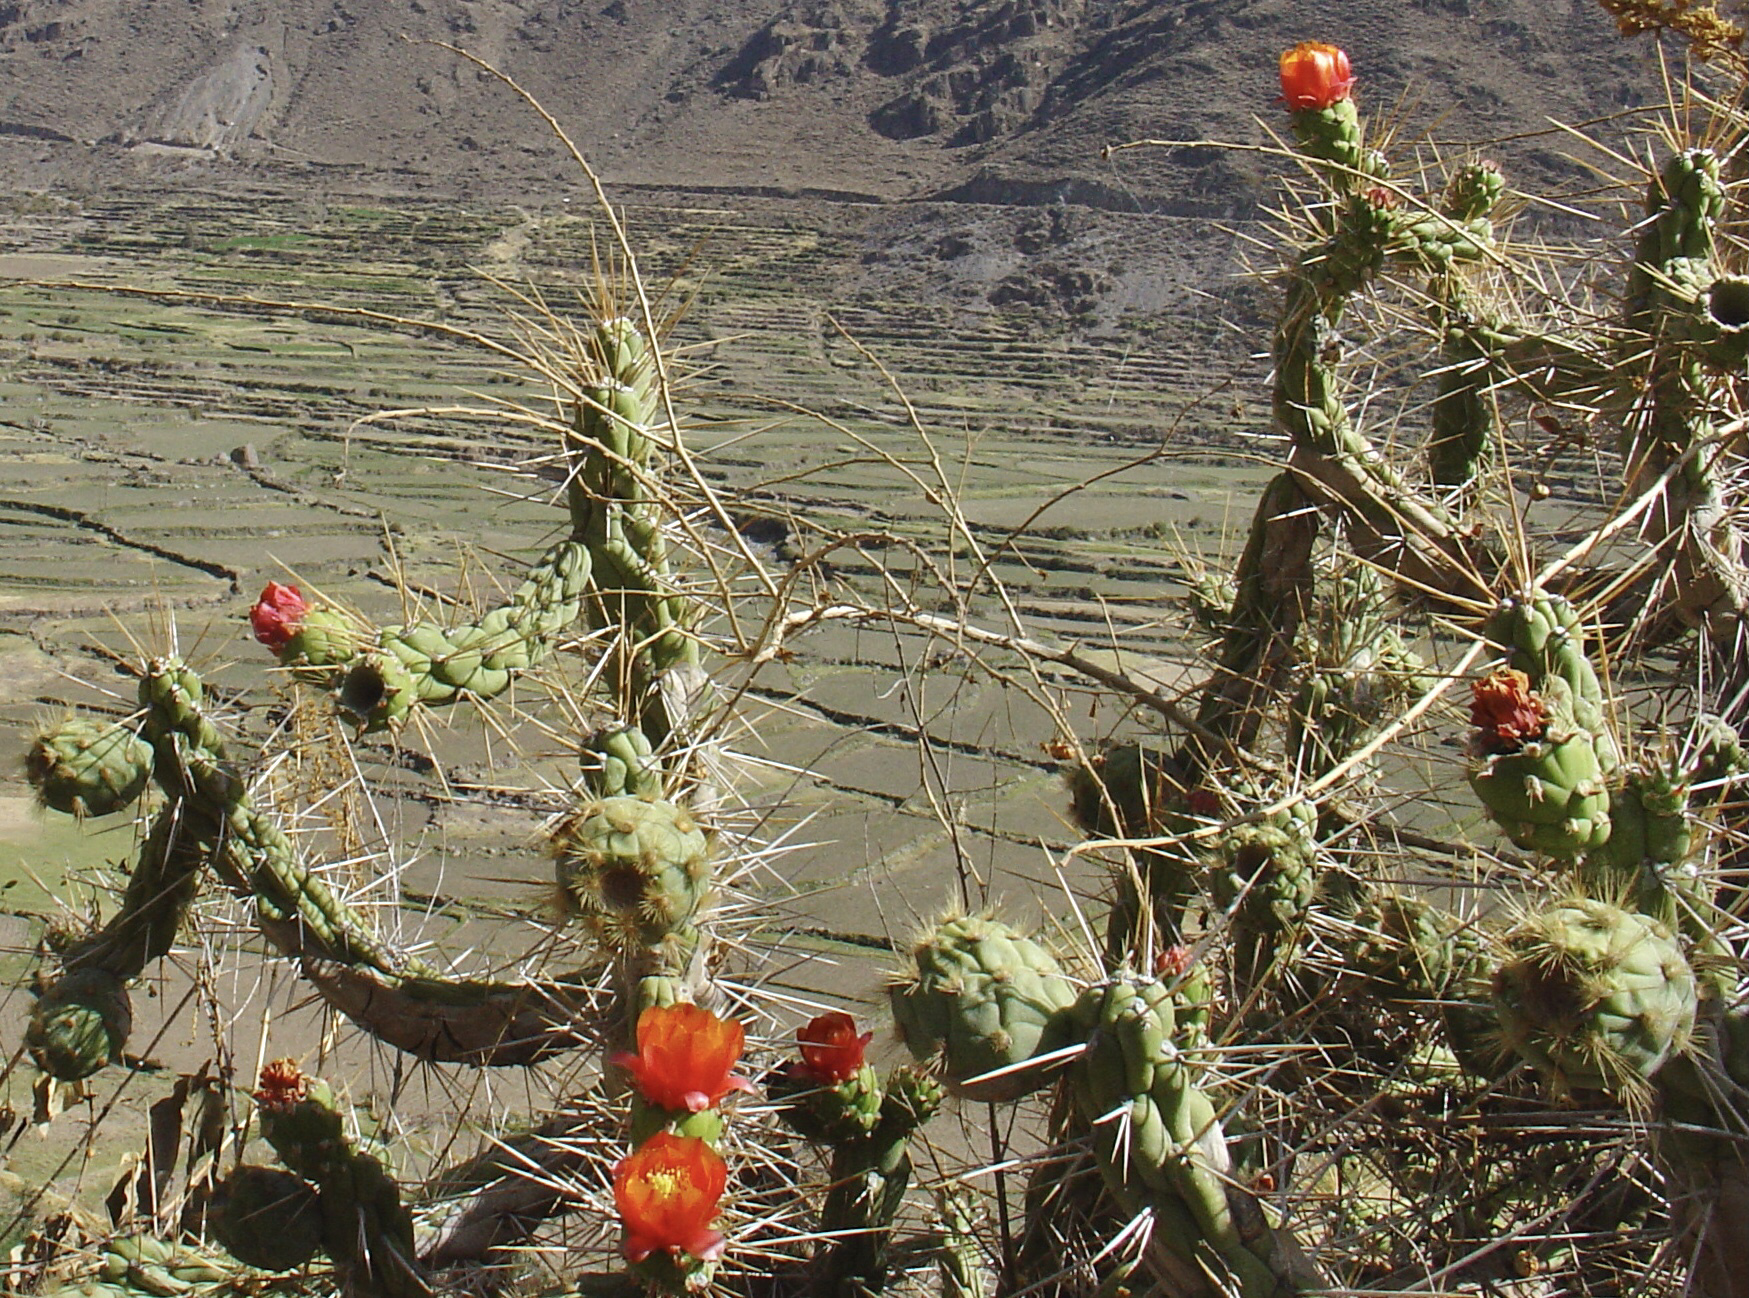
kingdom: Plantae
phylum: Tracheophyta
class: Magnoliopsida
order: Caryophyllales
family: Cactaceae
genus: Austrocylindropuntia
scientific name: Austrocylindropuntia subulata
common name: Eve's needle cactus
